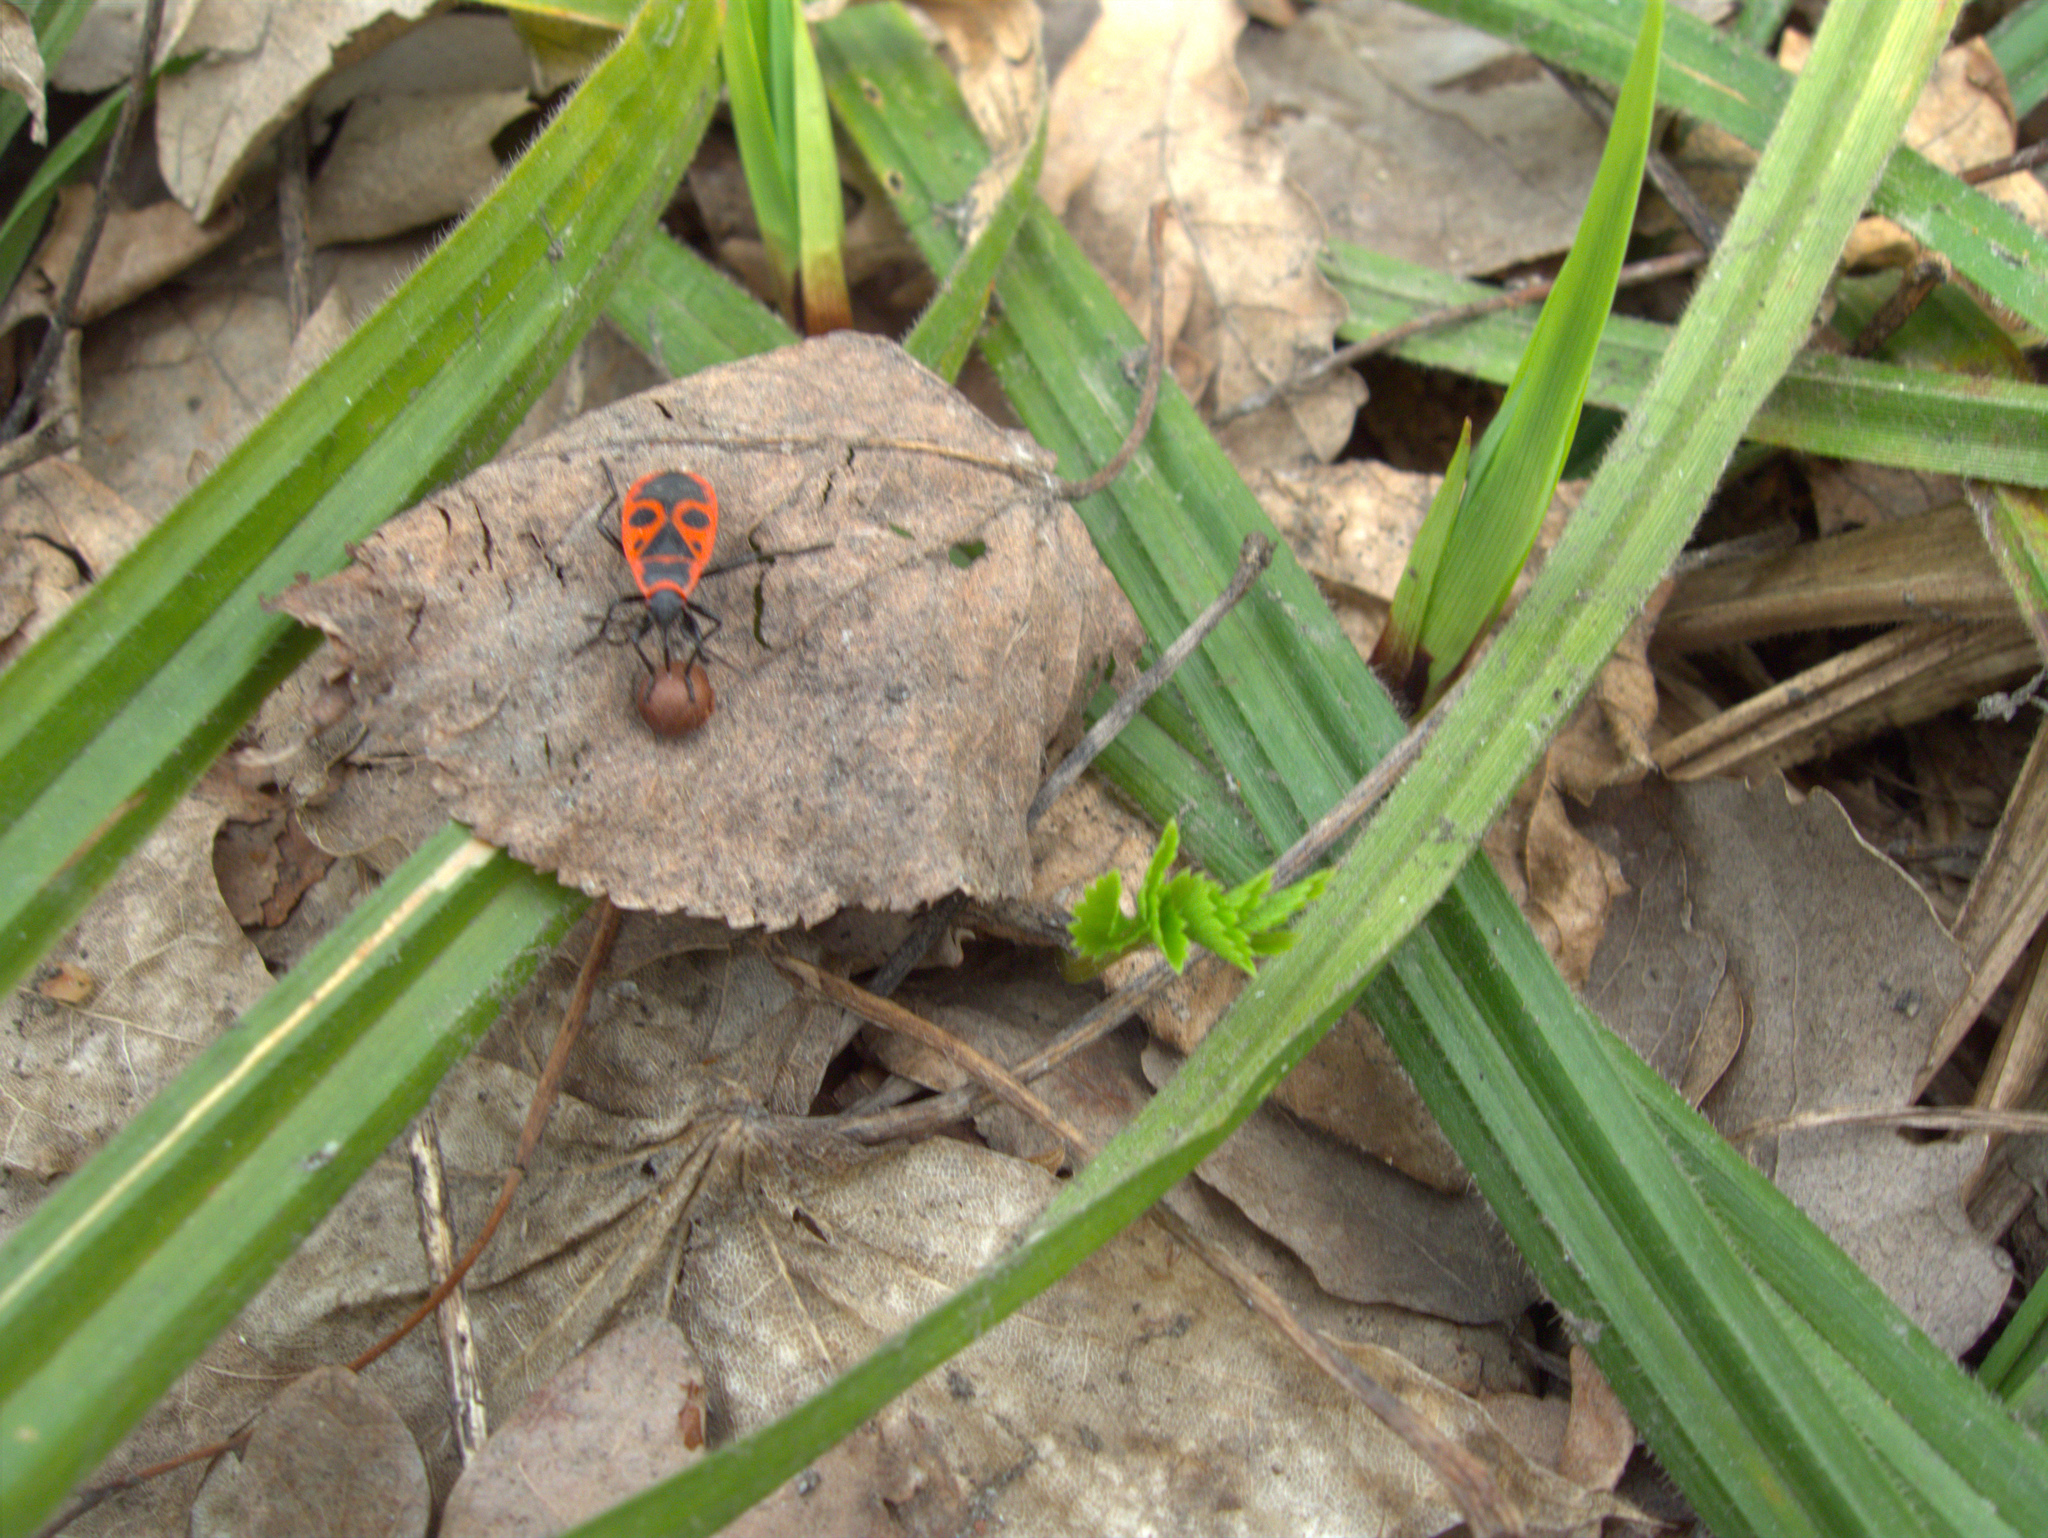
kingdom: Animalia
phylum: Arthropoda
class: Insecta
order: Hemiptera
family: Pyrrhocoridae
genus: Pyrrhocoris
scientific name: Pyrrhocoris apterus
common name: Firebug
